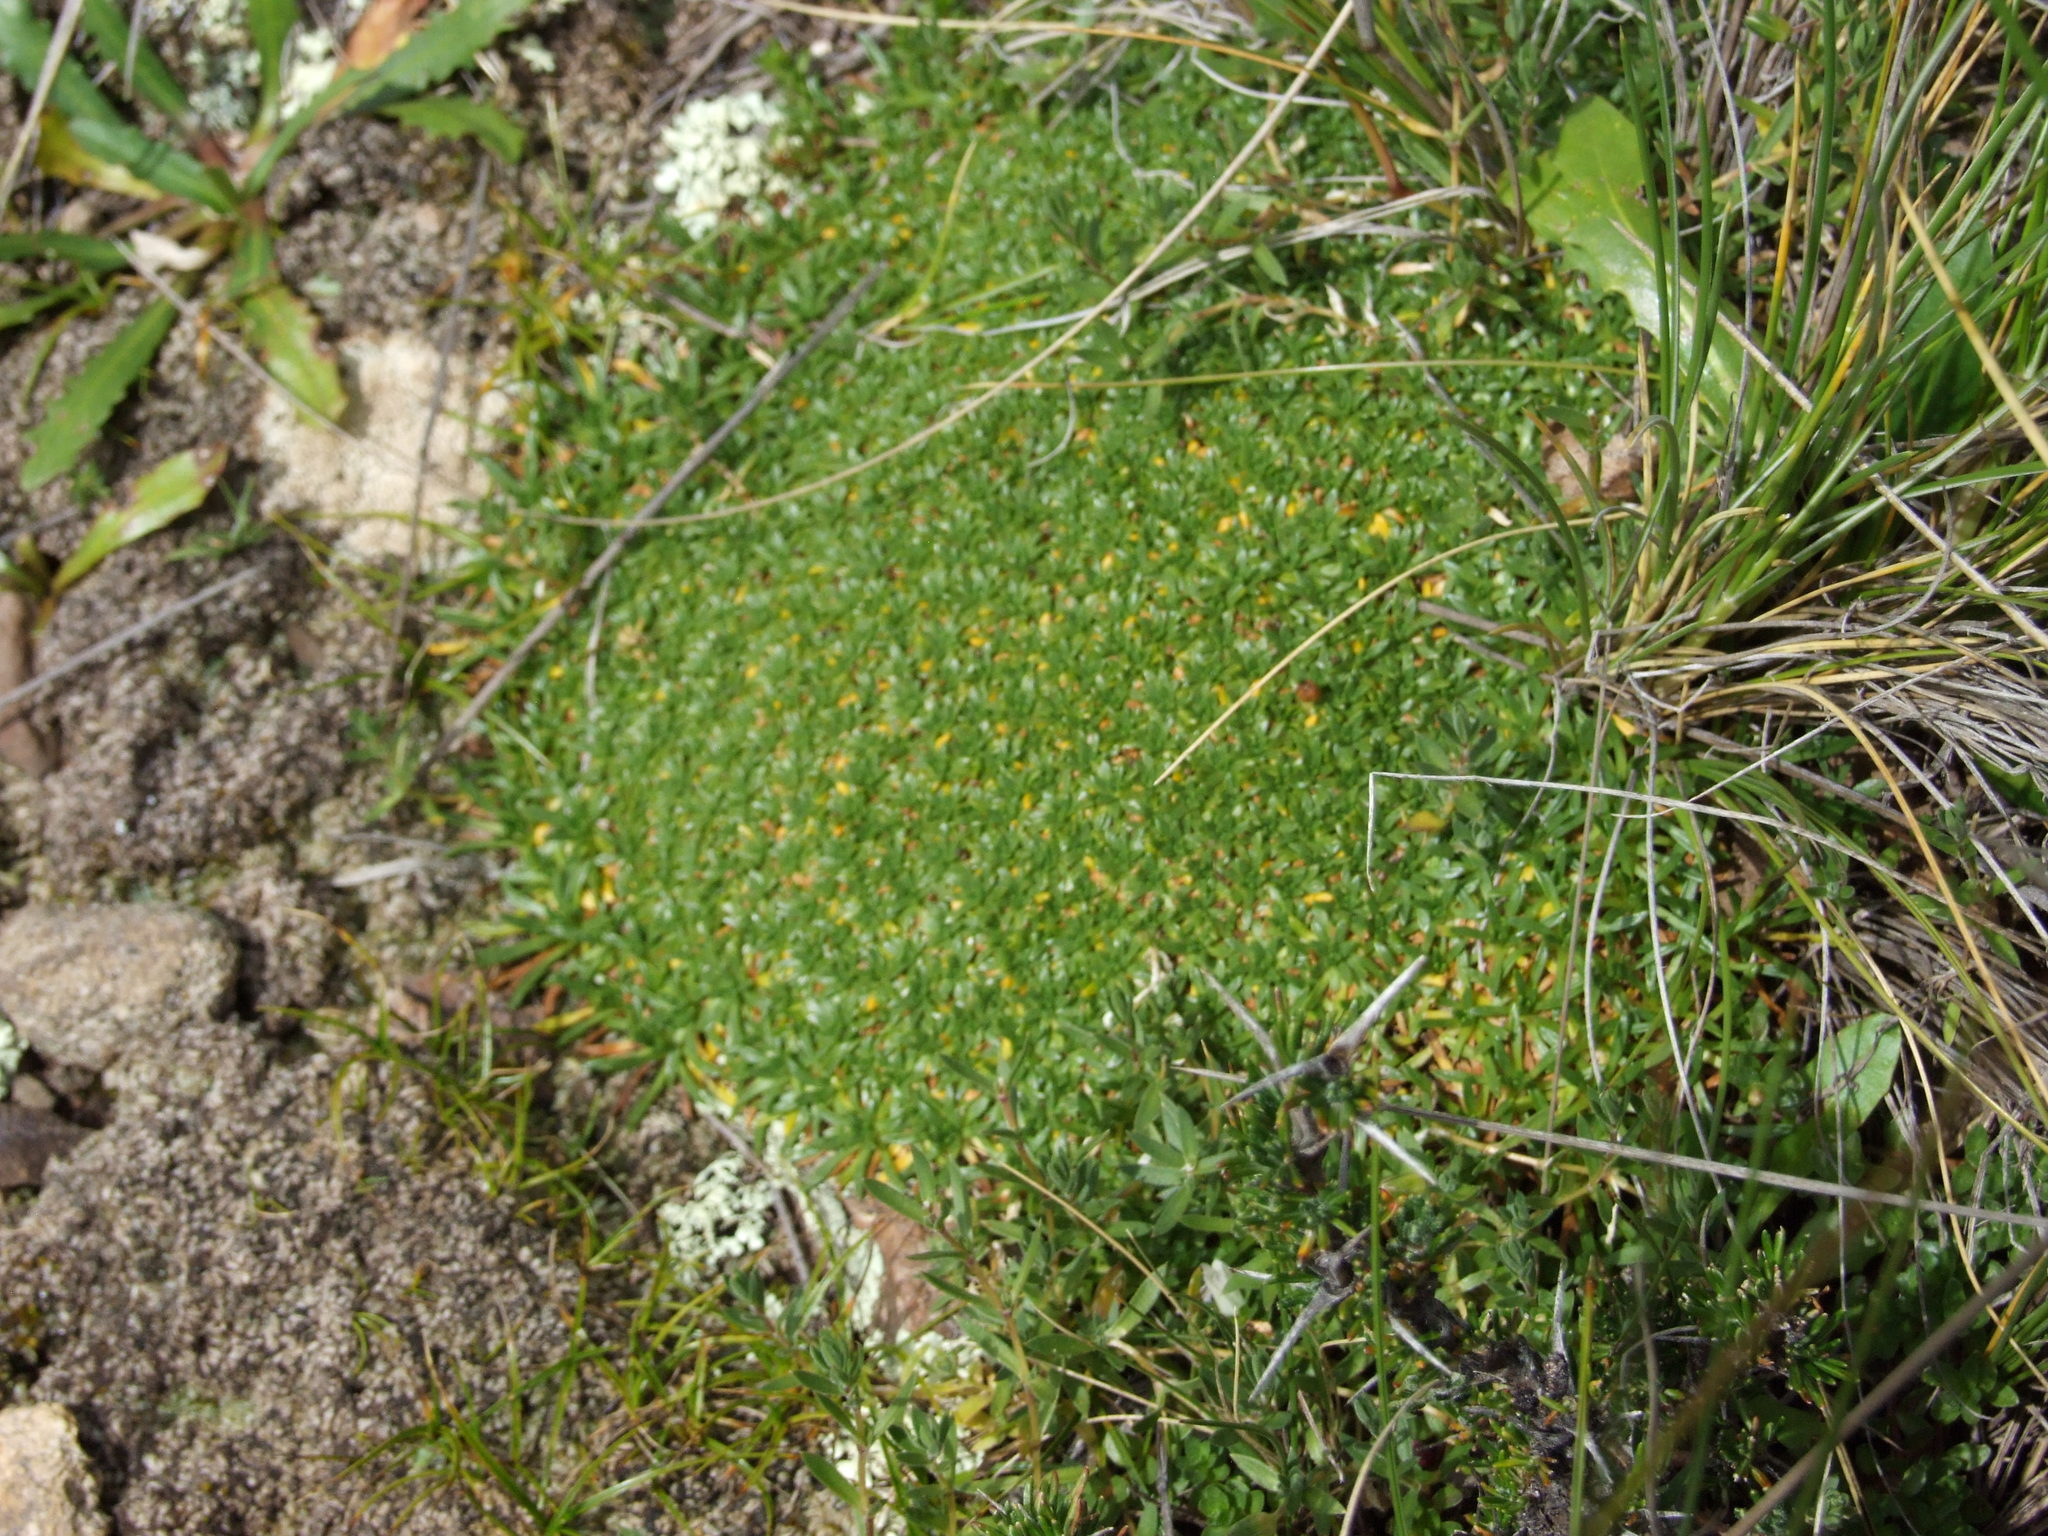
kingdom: Plantae
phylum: Tracheophyta
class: Magnoliopsida
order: Apiales
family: Apiaceae
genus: Azorella
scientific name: Azorella diapensioides
